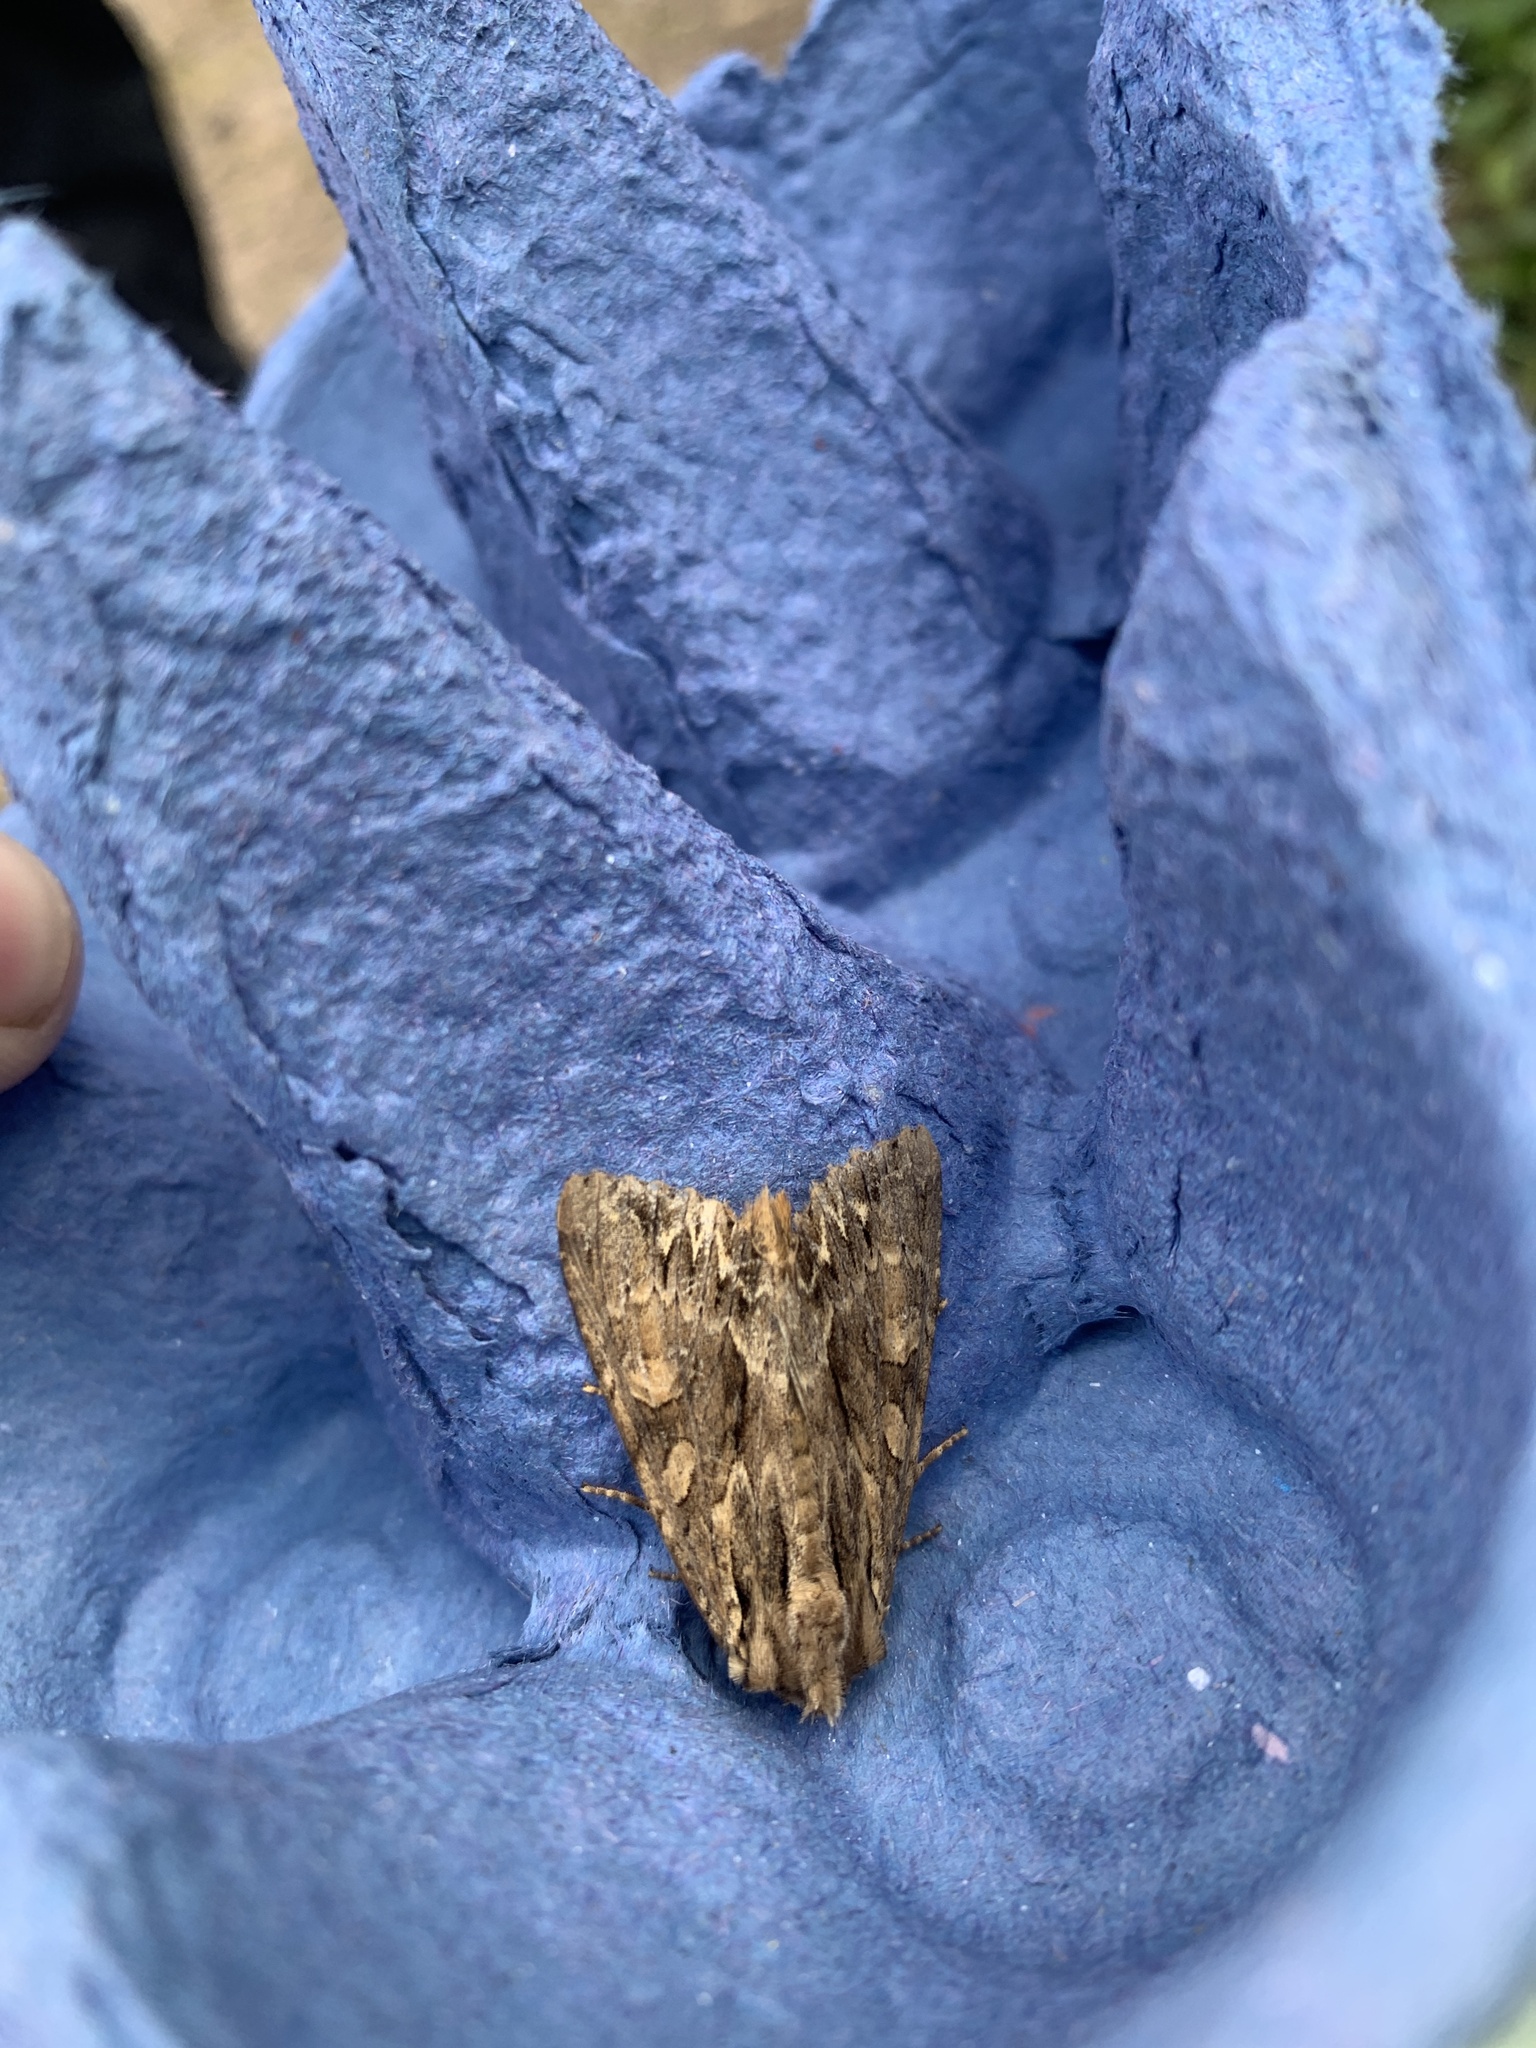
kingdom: Animalia
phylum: Arthropoda
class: Insecta
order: Lepidoptera
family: Noctuidae
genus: Apamea
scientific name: Apamea monoglypha
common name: Dark arches
